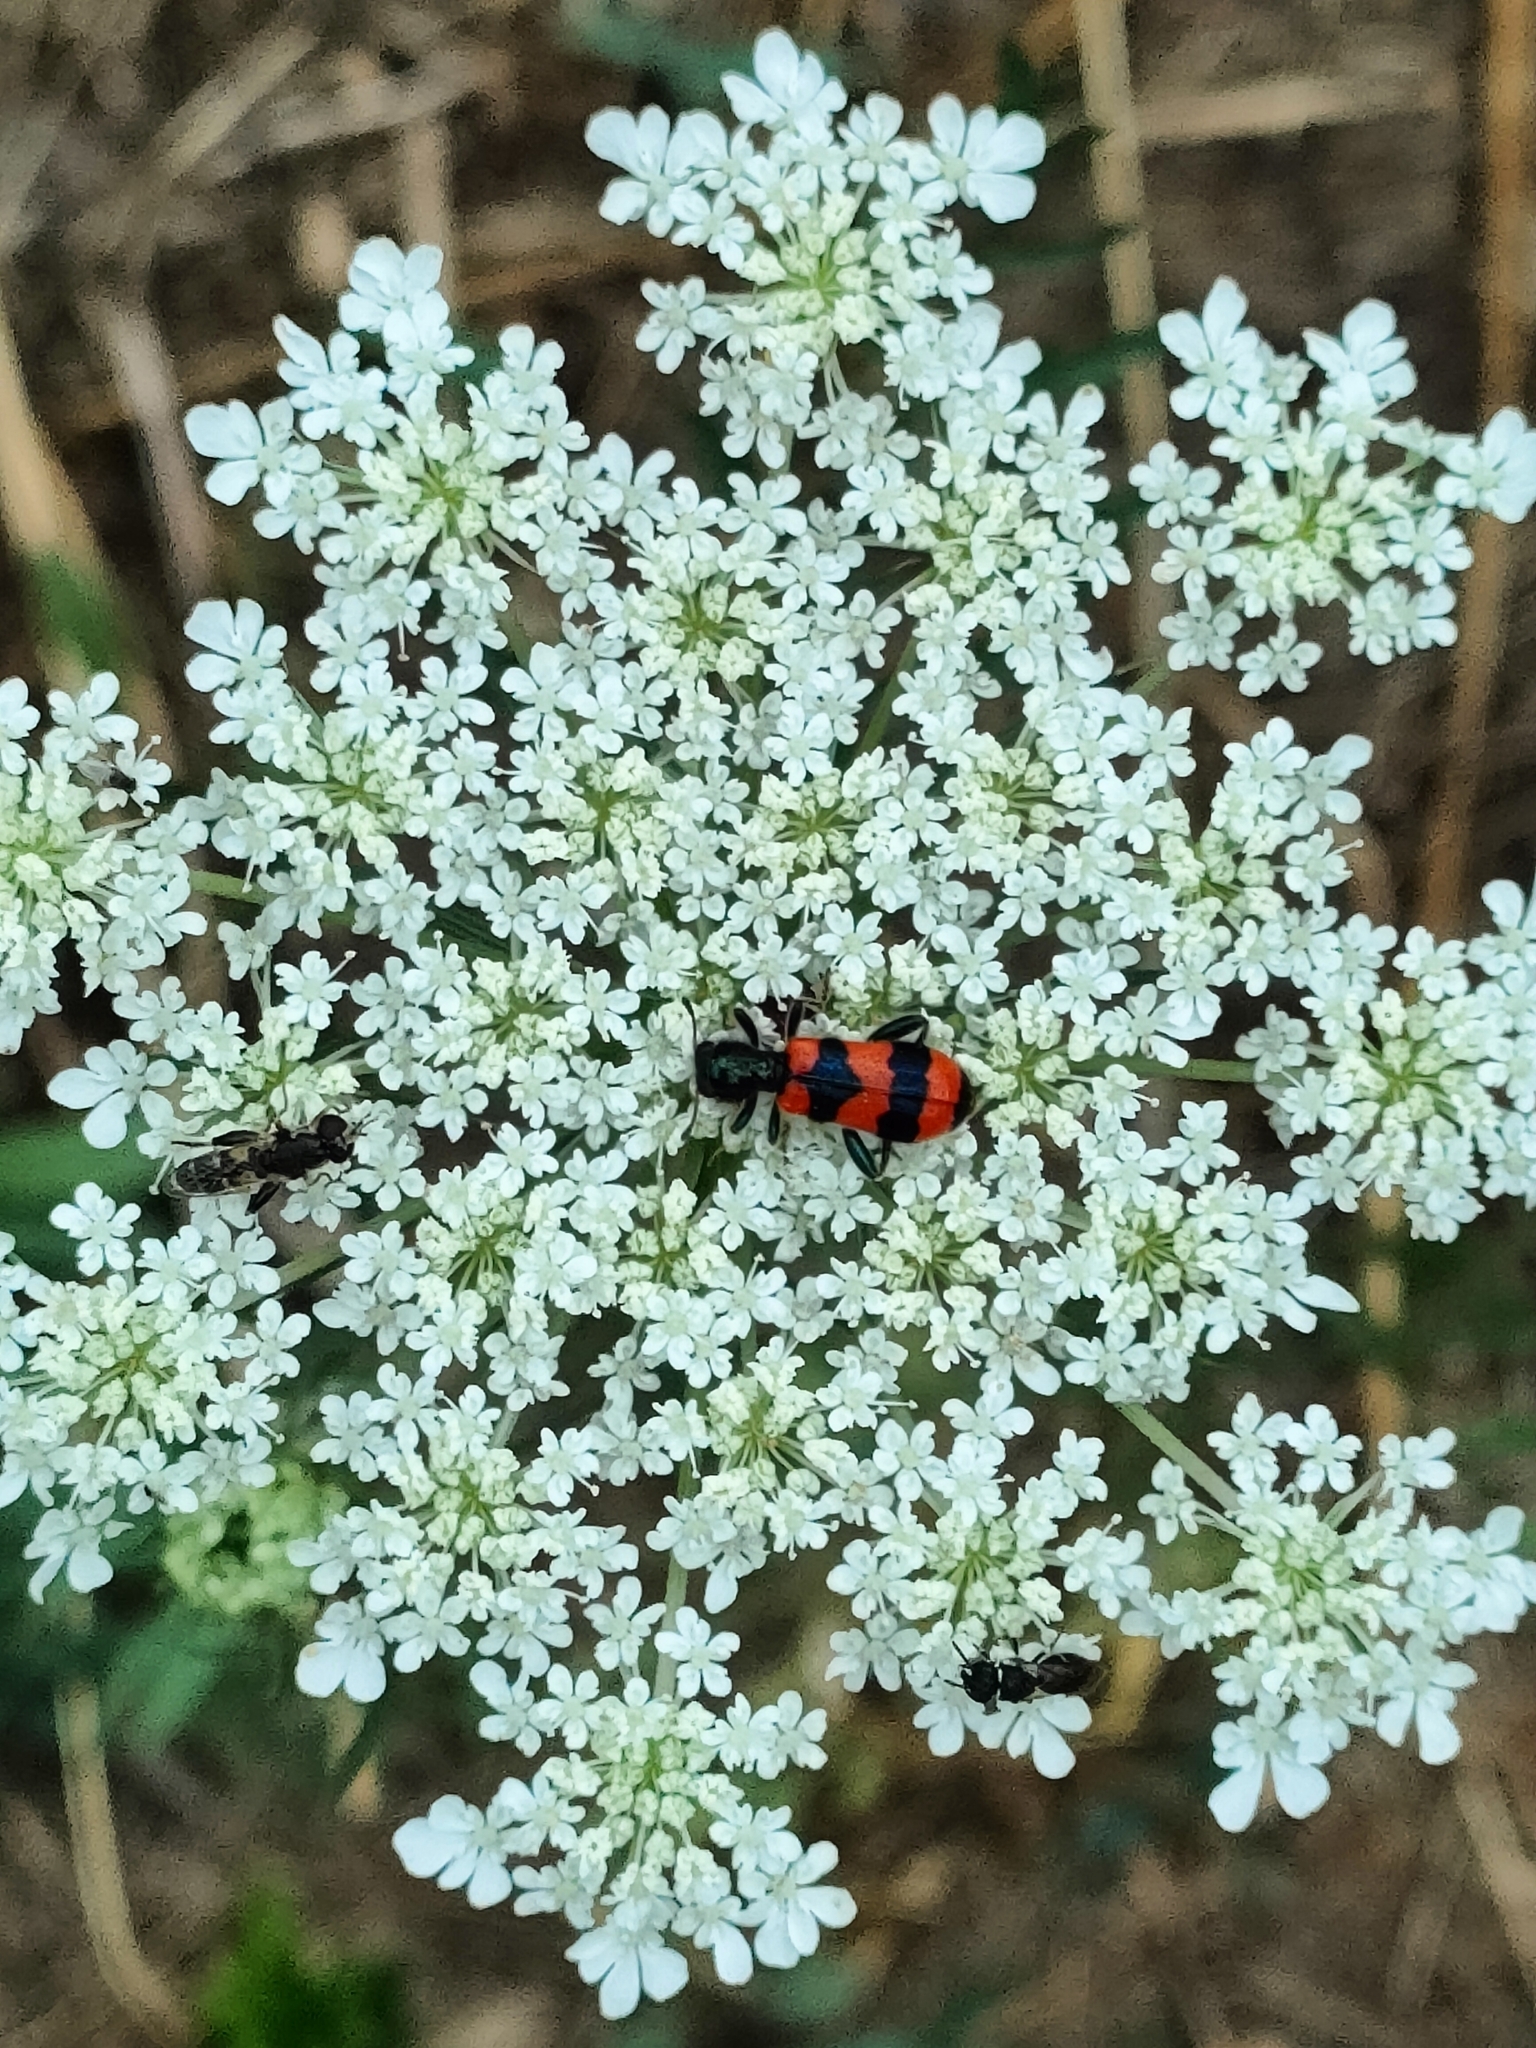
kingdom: Animalia
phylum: Arthropoda
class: Insecta
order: Coleoptera
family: Cleridae
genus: Trichodes
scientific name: Trichodes apiarius
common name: Bee-eating beetle
